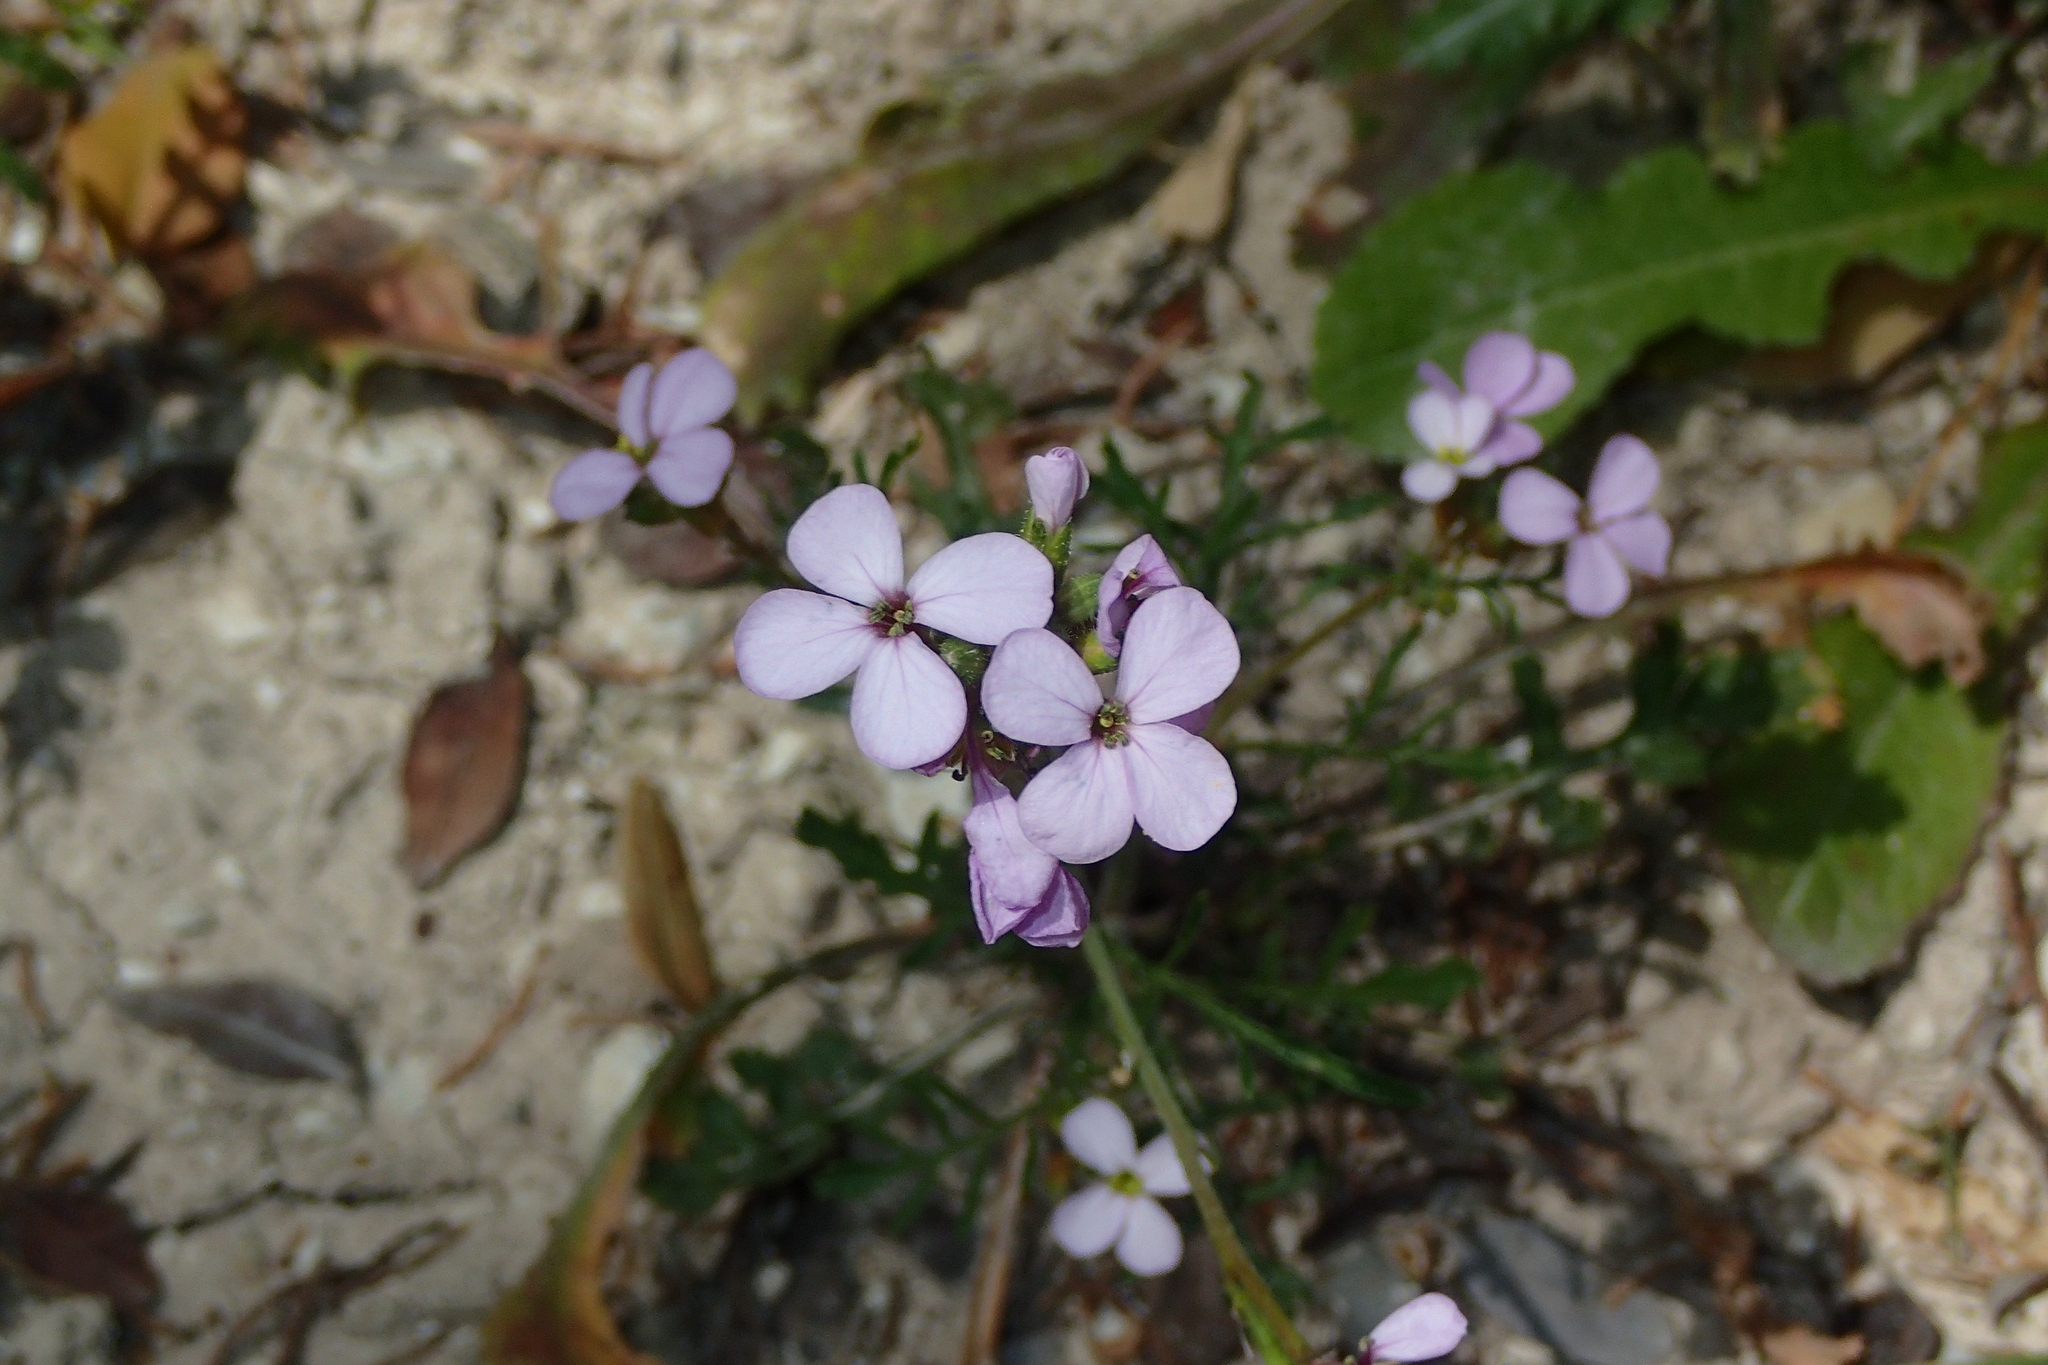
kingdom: Plantae
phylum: Tracheophyta
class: Magnoliopsida
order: Brassicales
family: Brassicaceae
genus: Erucaria
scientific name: Erucaria hispanica
